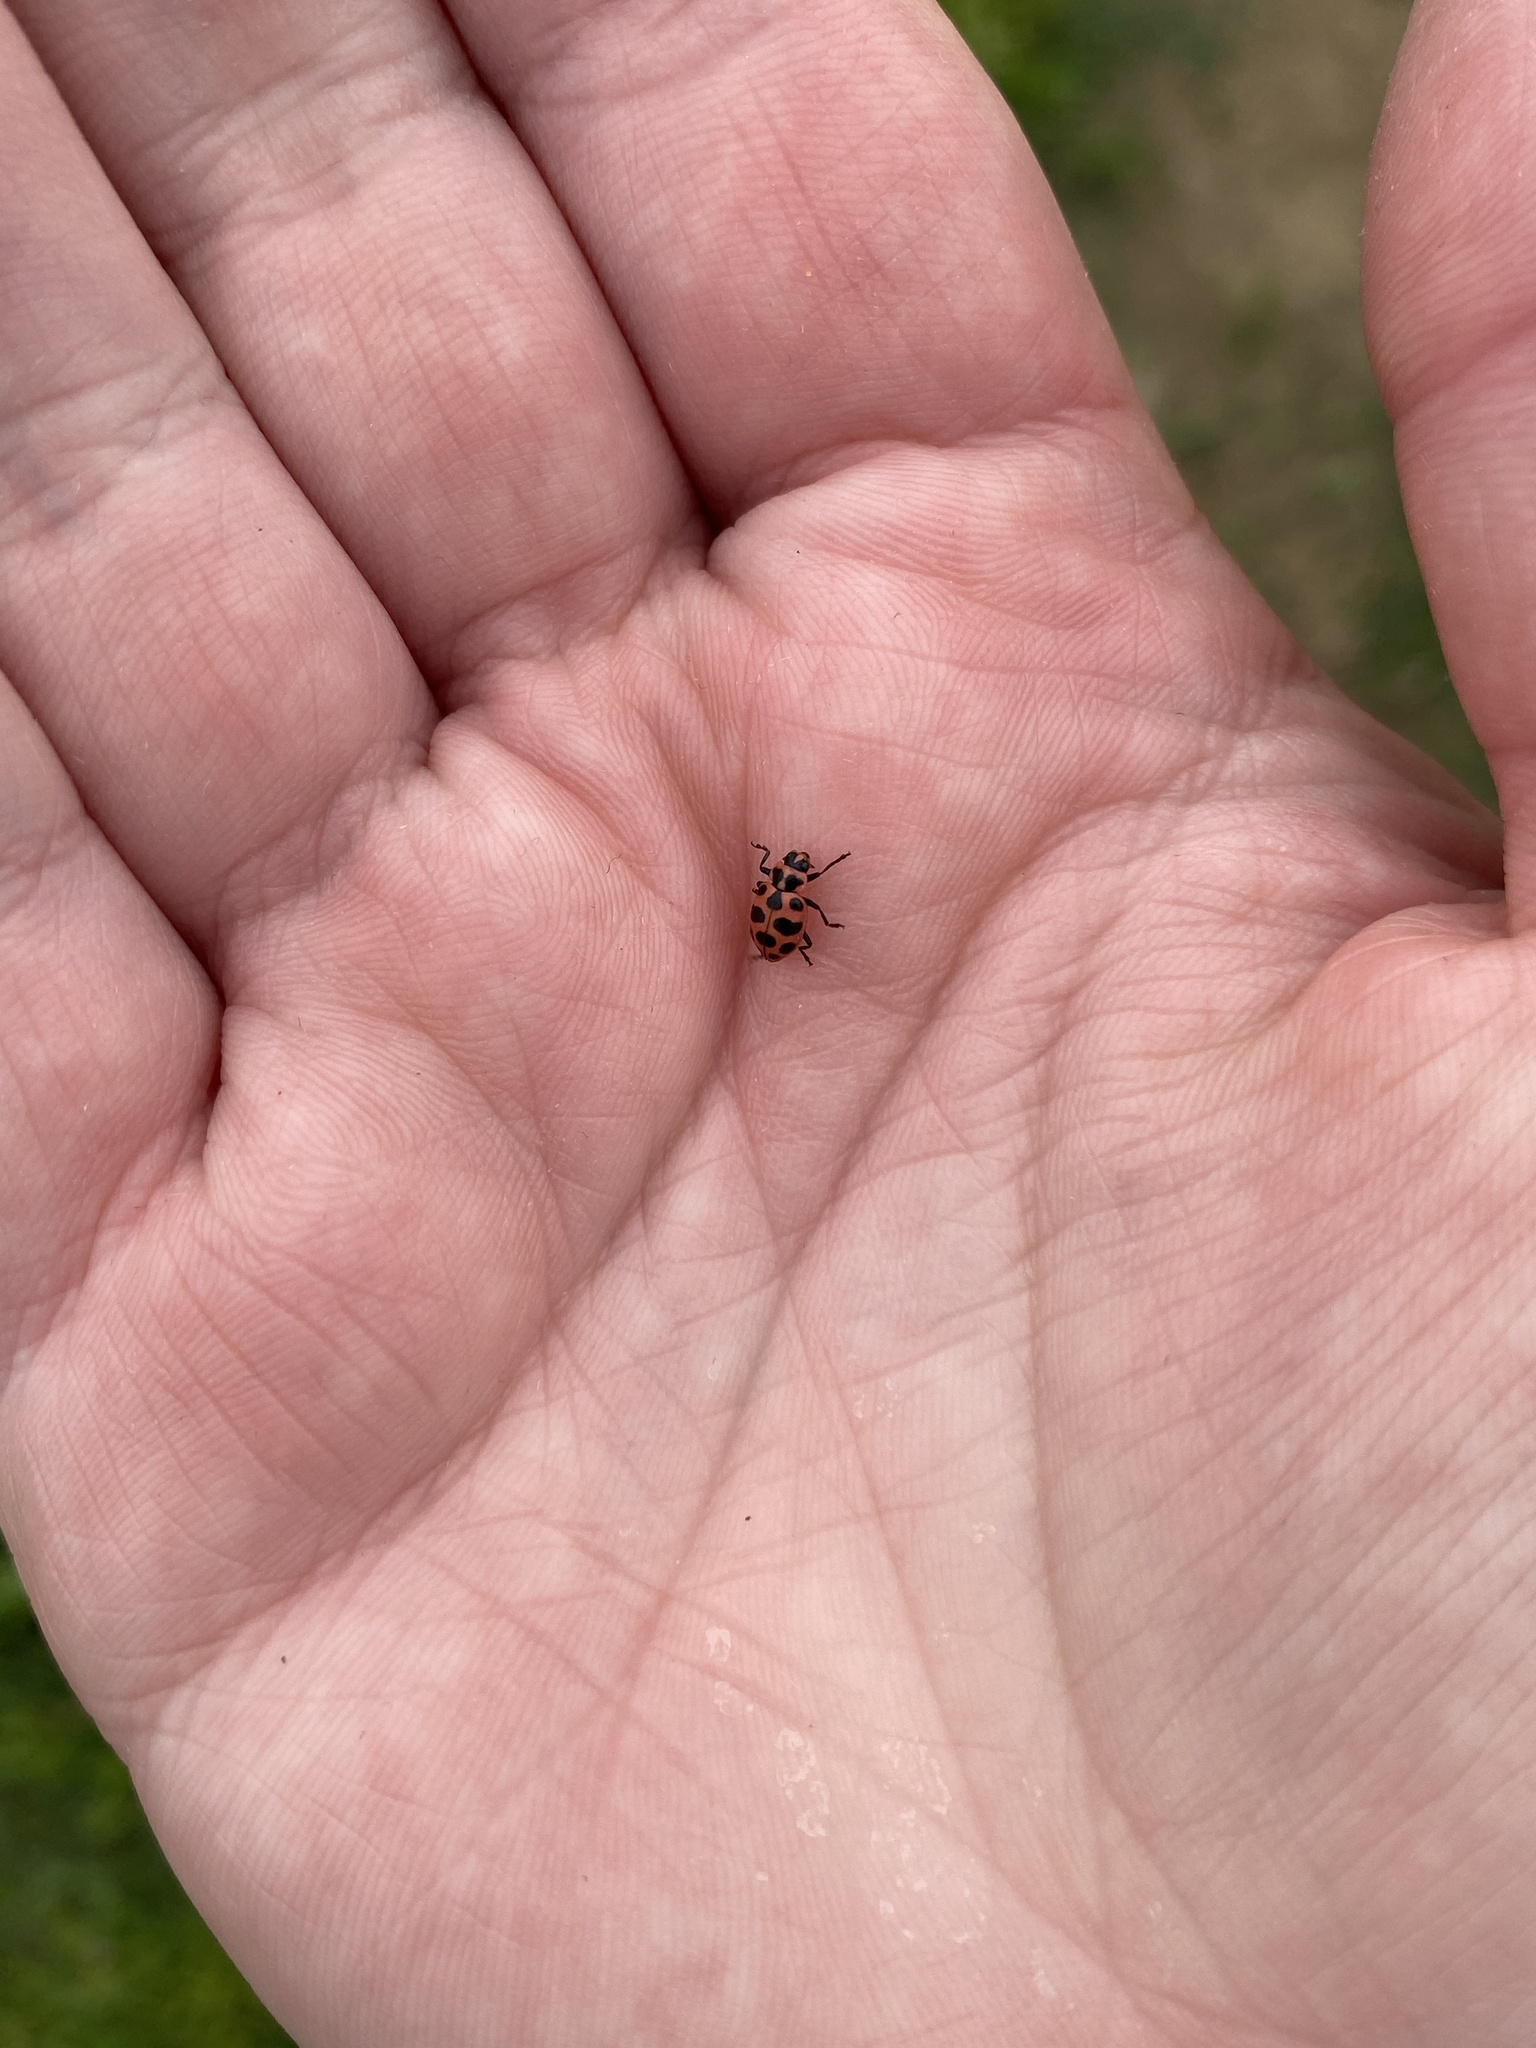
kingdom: Animalia
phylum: Arthropoda
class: Insecta
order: Coleoptera
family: Coccinellidae
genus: Coleomegilla
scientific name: Coleomegilla maculata
